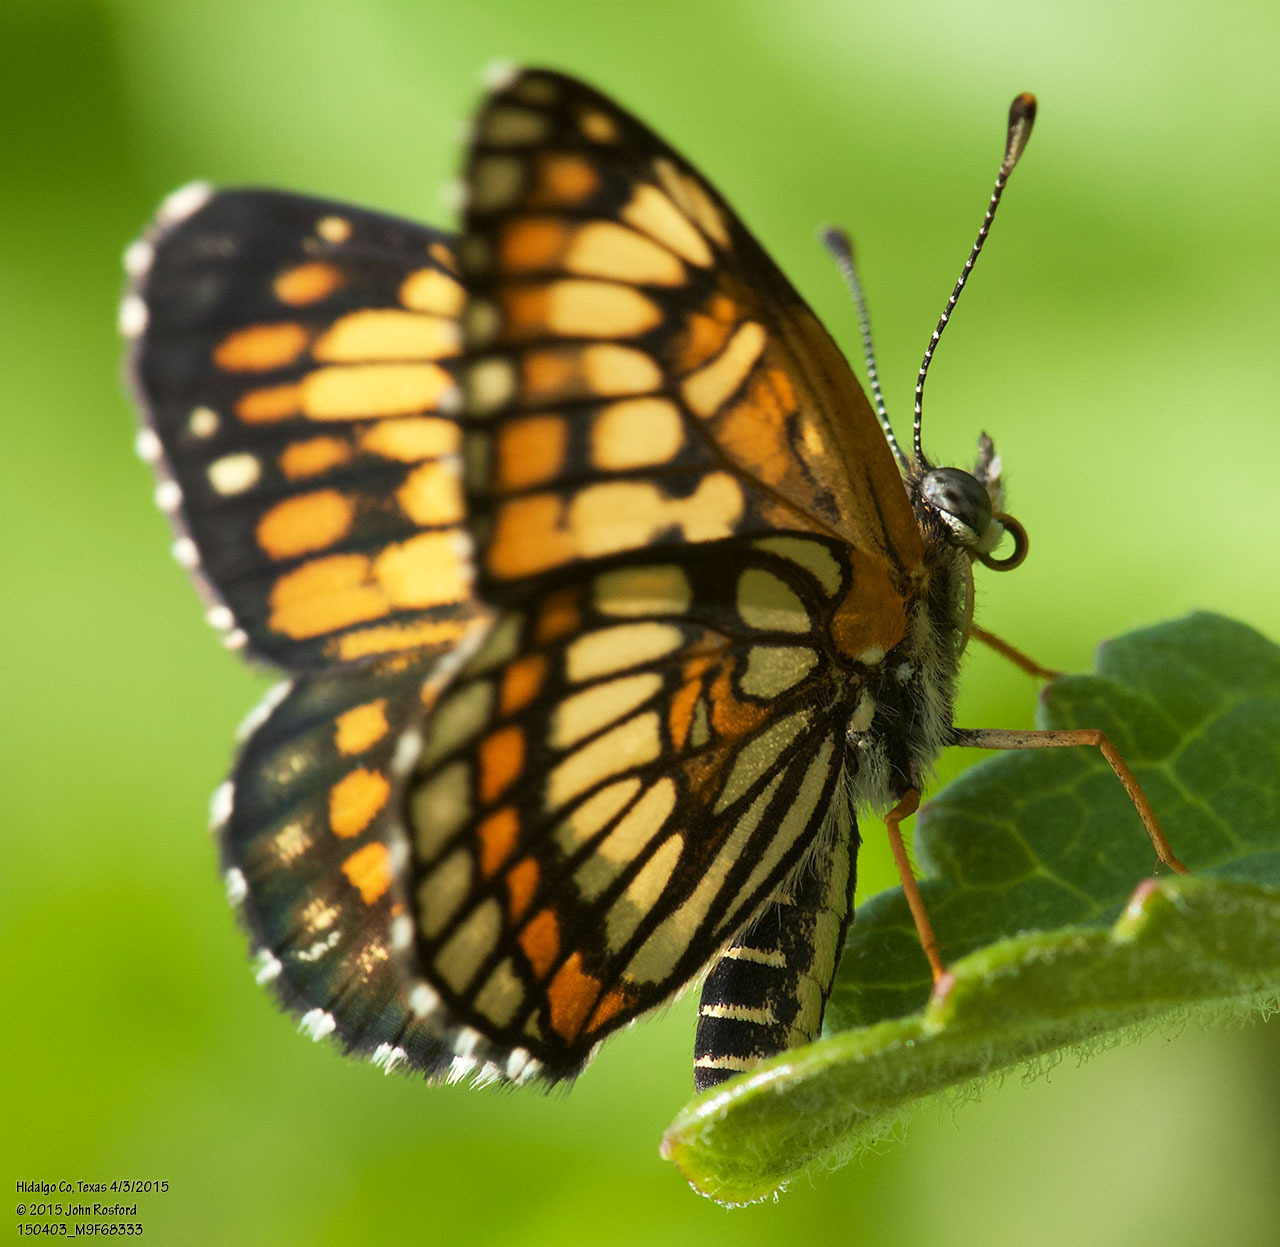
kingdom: Animalia
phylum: Arthropoda
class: Insecta
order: Lepidoptera
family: Nymphalidae
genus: Thessalia
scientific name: Thessalia theona
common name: Nymphalid moth
